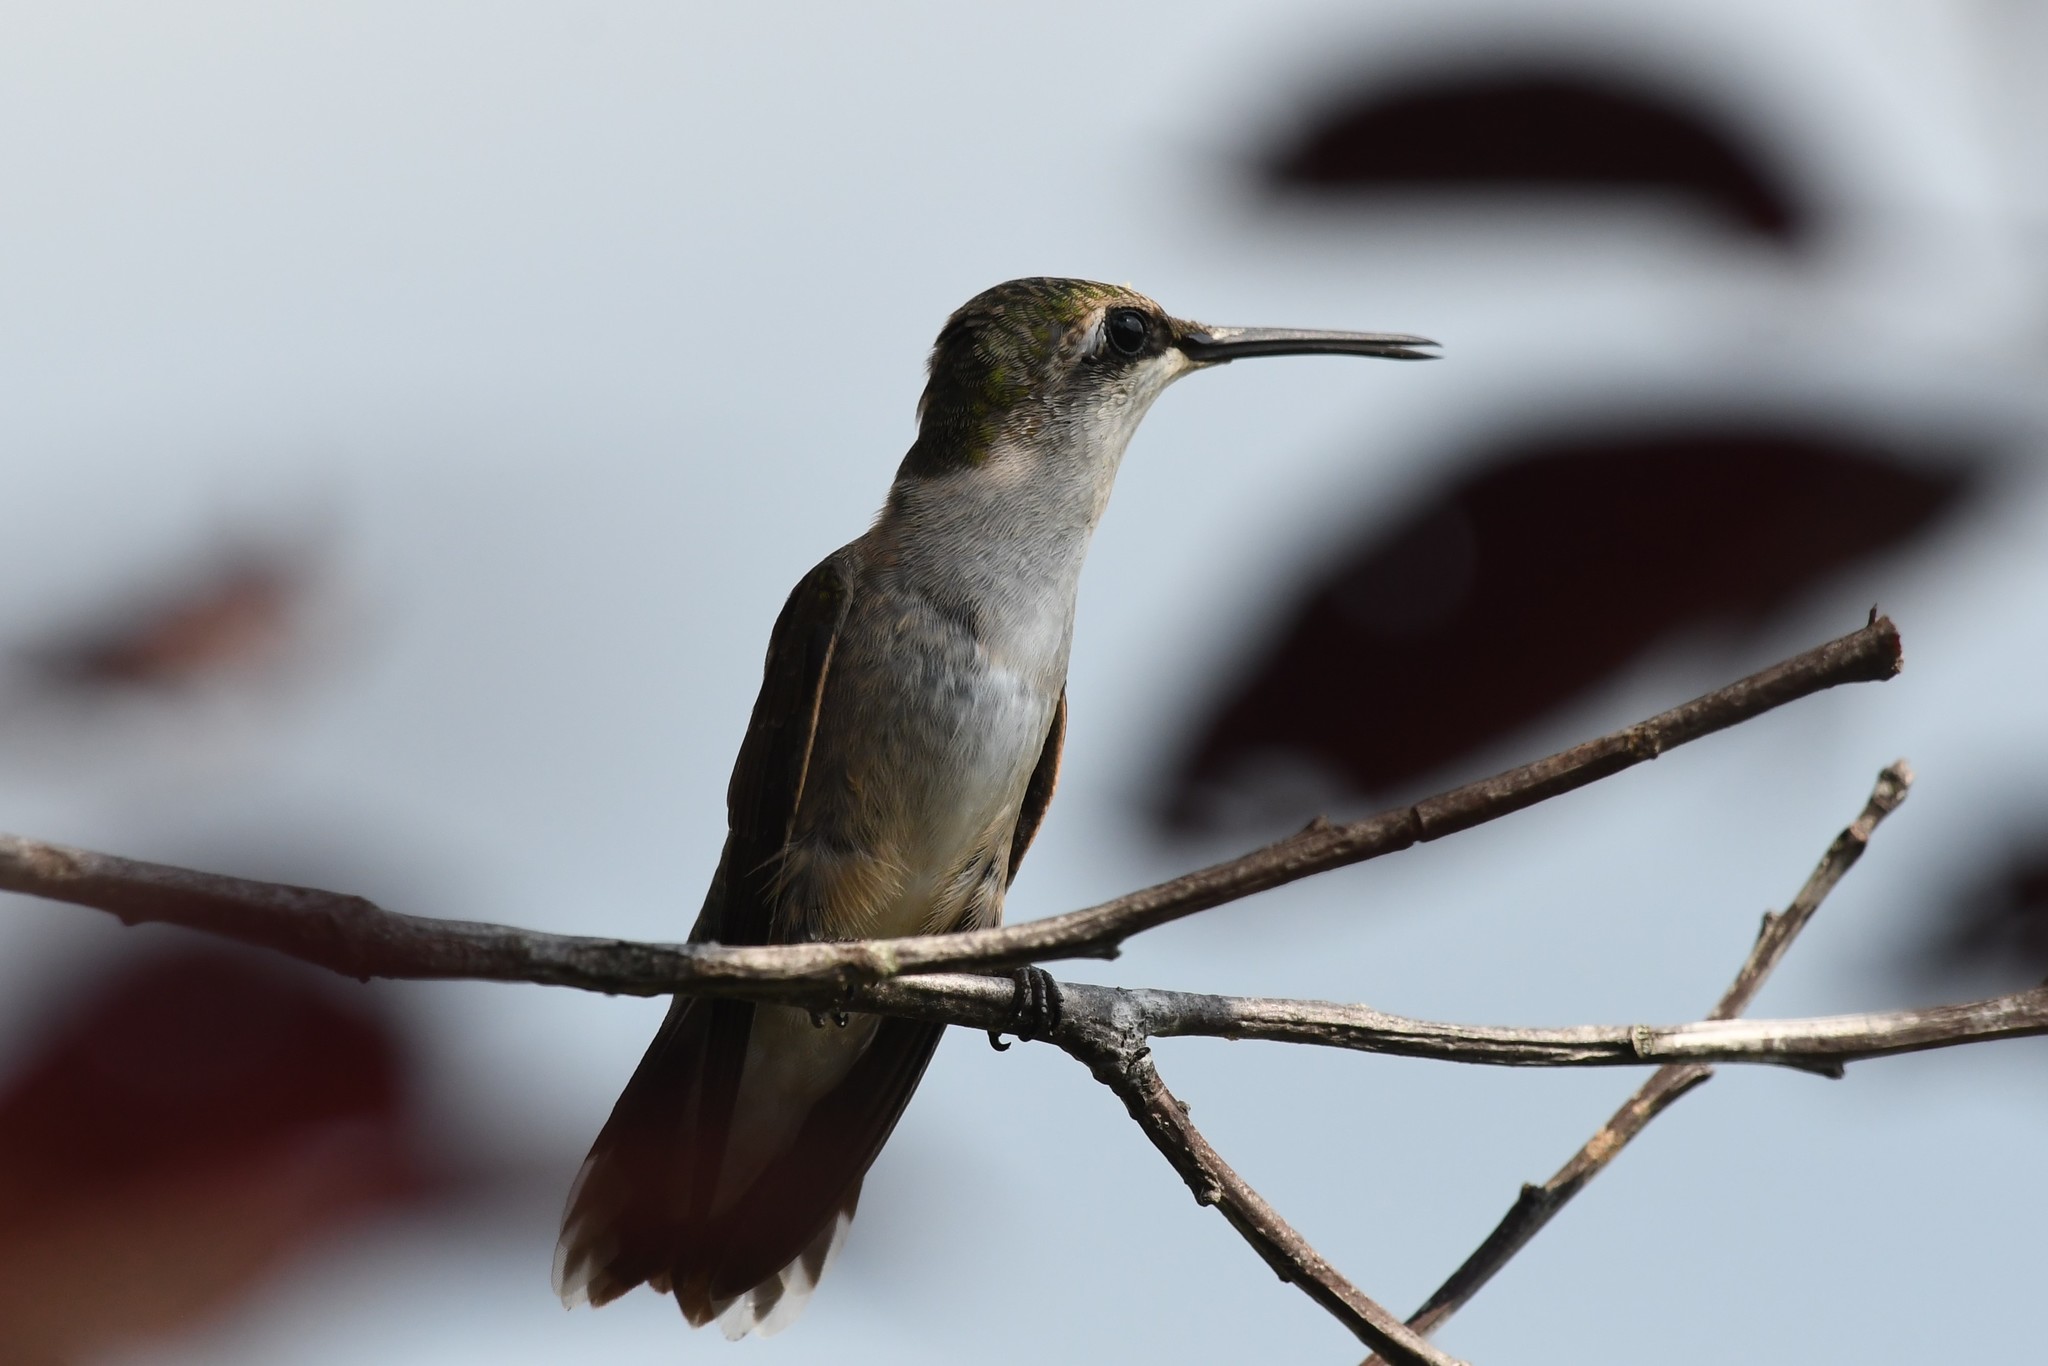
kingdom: Animalia
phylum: Chordata
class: Aves
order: Apodiformes
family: Trochilidae
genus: Archilochus
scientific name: Archilochus colubris
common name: Ruby-throated hummingbird
